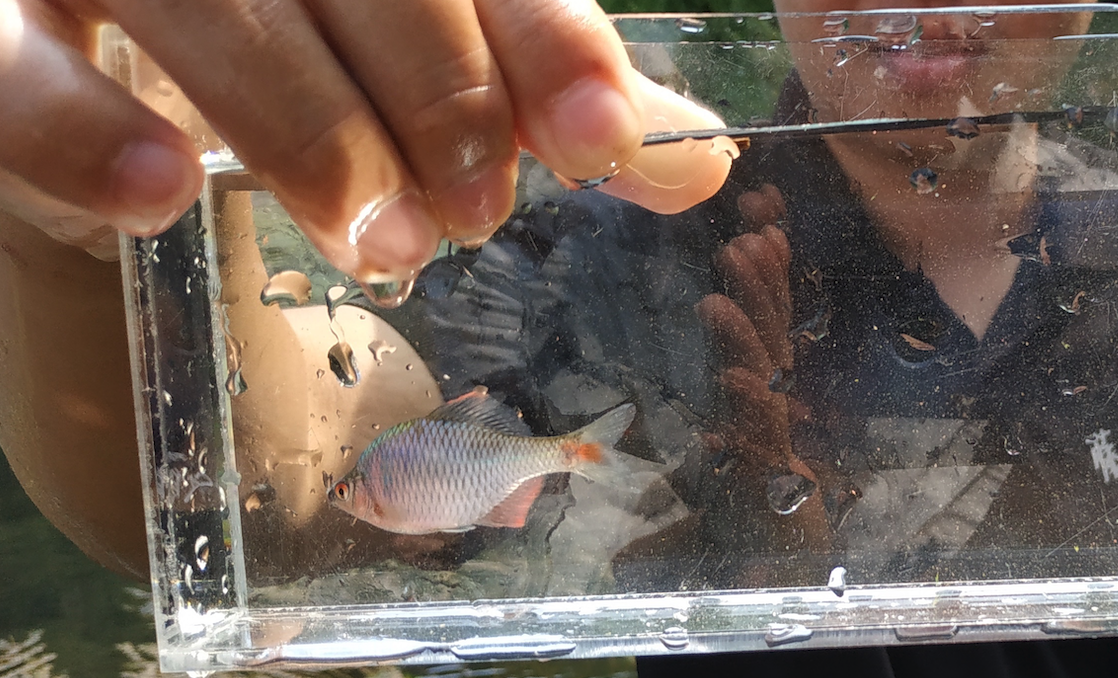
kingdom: Animalia
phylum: Chordata
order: Cypriniformes
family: Cyprinidae
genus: Rhodeus
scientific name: Rhodeus ocellatus
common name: Rose bitterling
